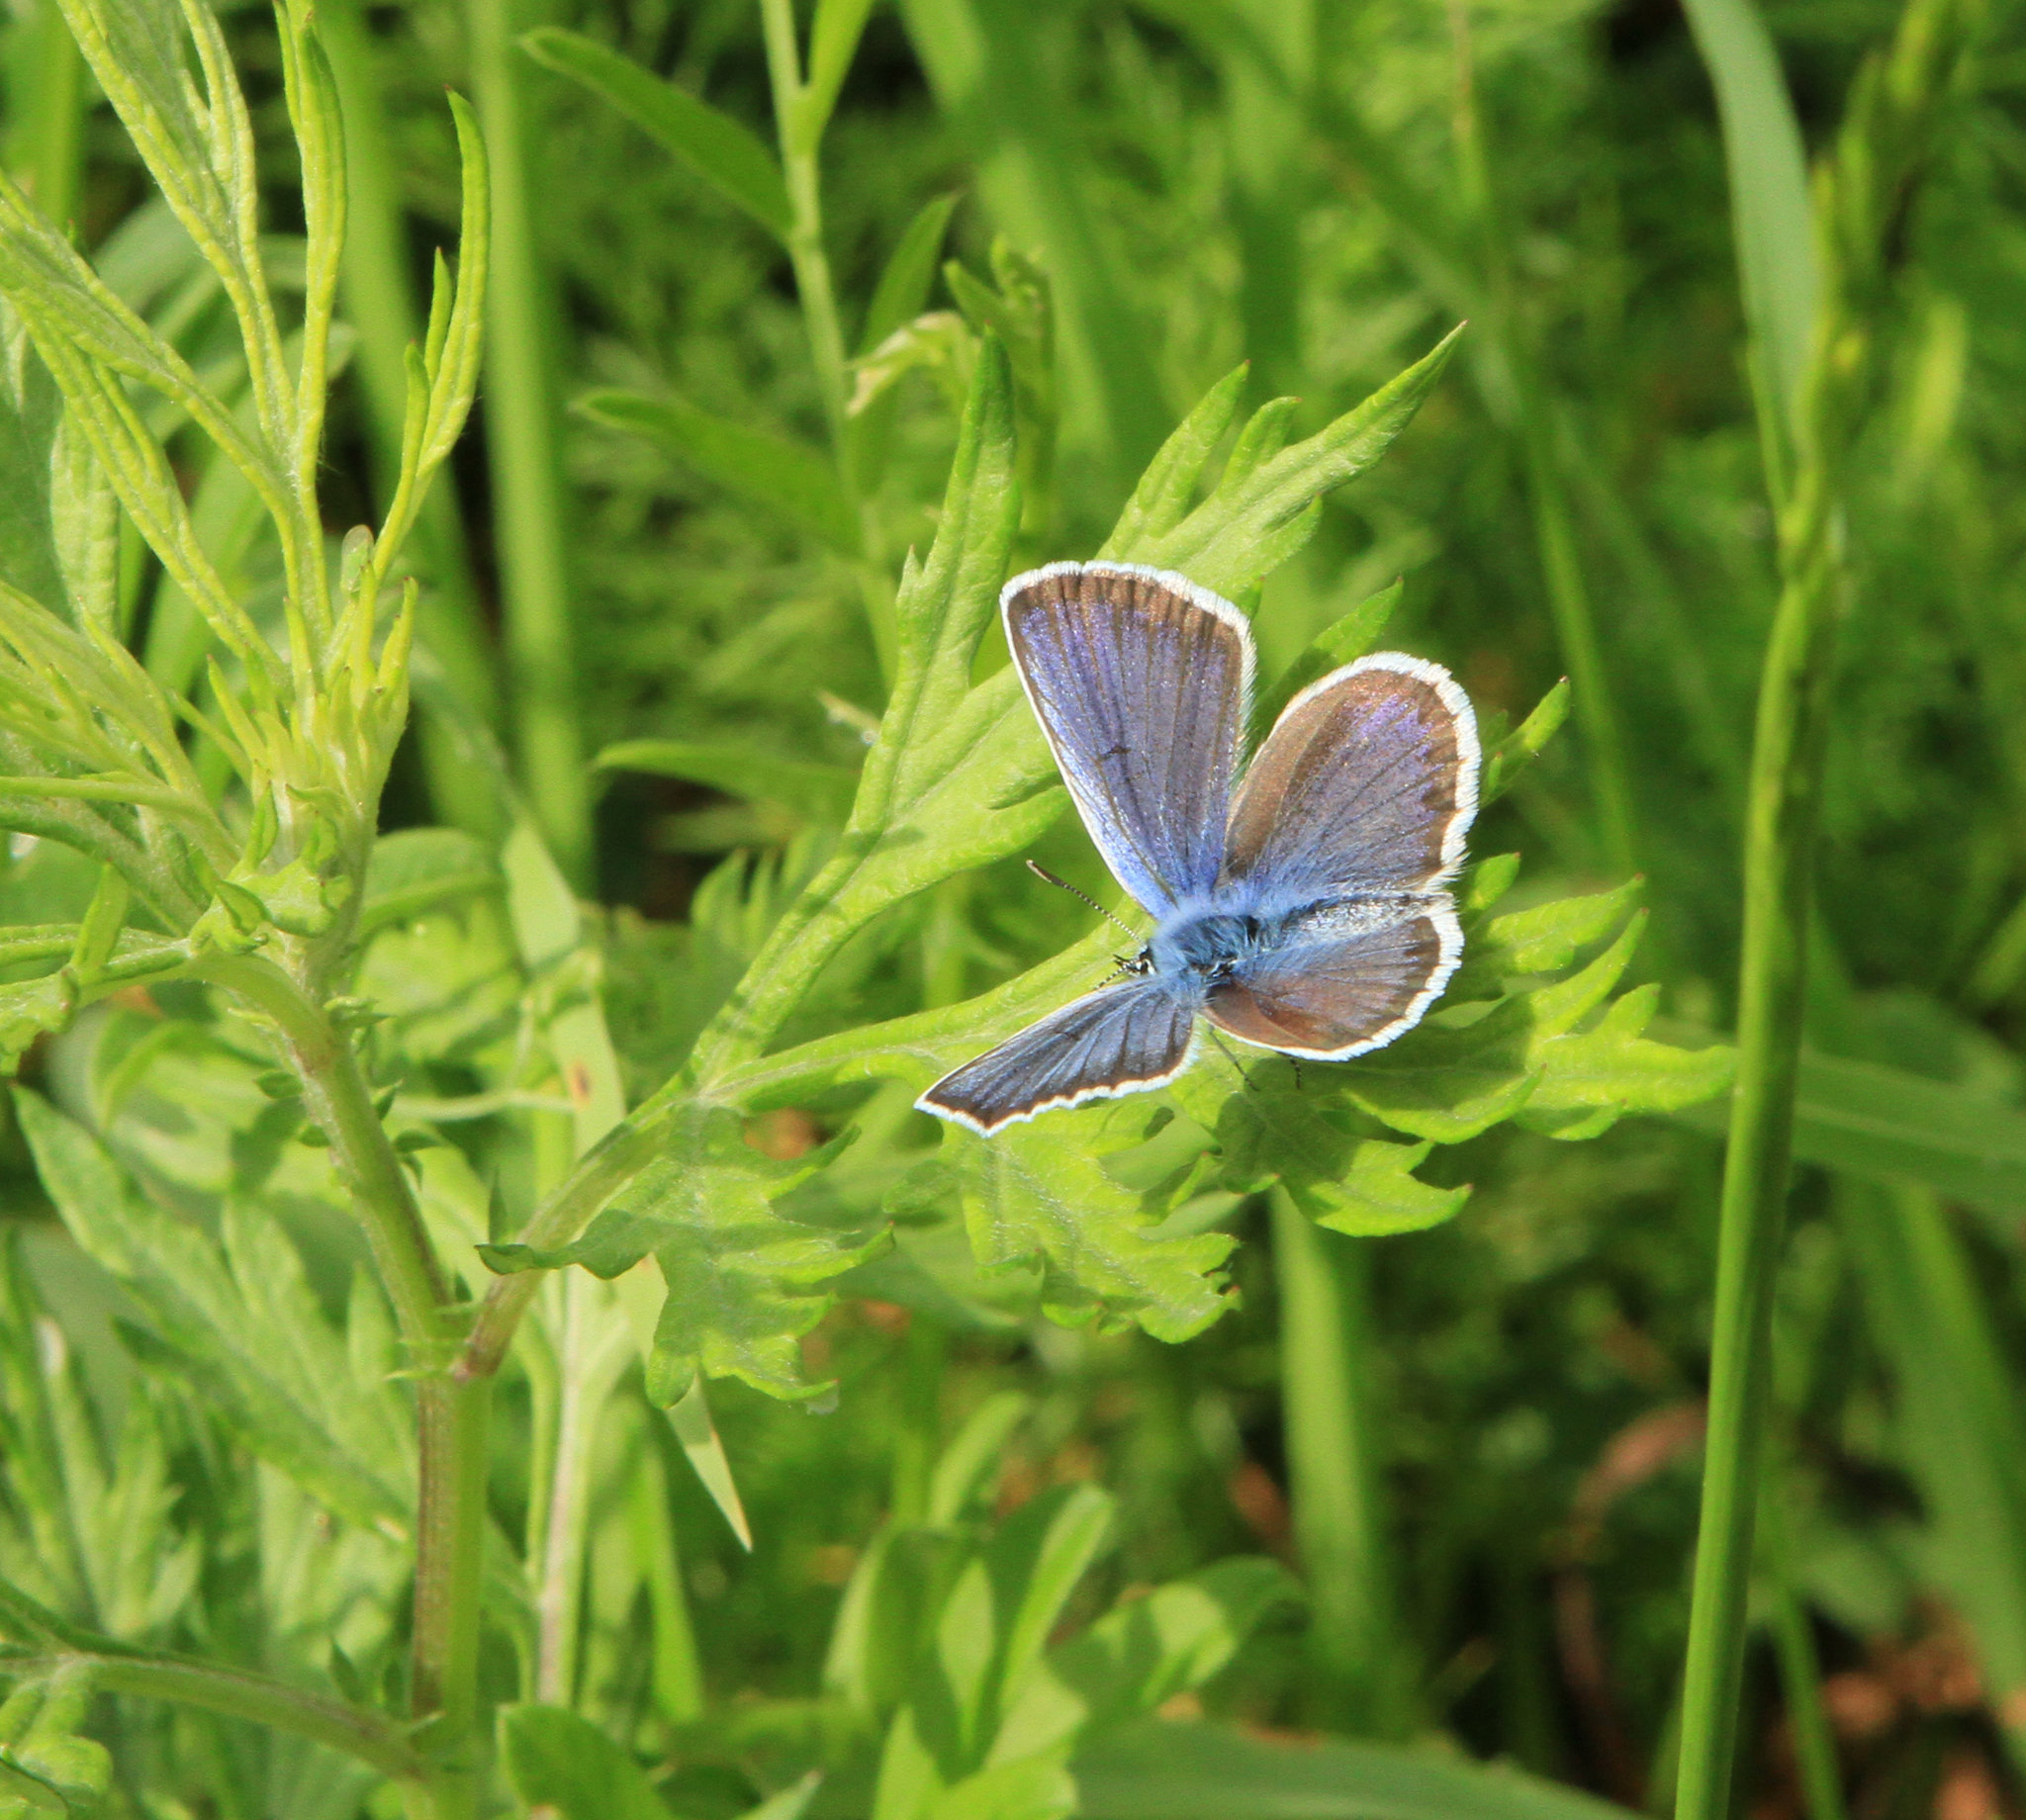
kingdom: Animalia
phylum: Arthropoda
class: Insecta
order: Lepidoptera
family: Lycaenidae
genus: Plebejus
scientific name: Plebejus argus
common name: Silver-studded blue
